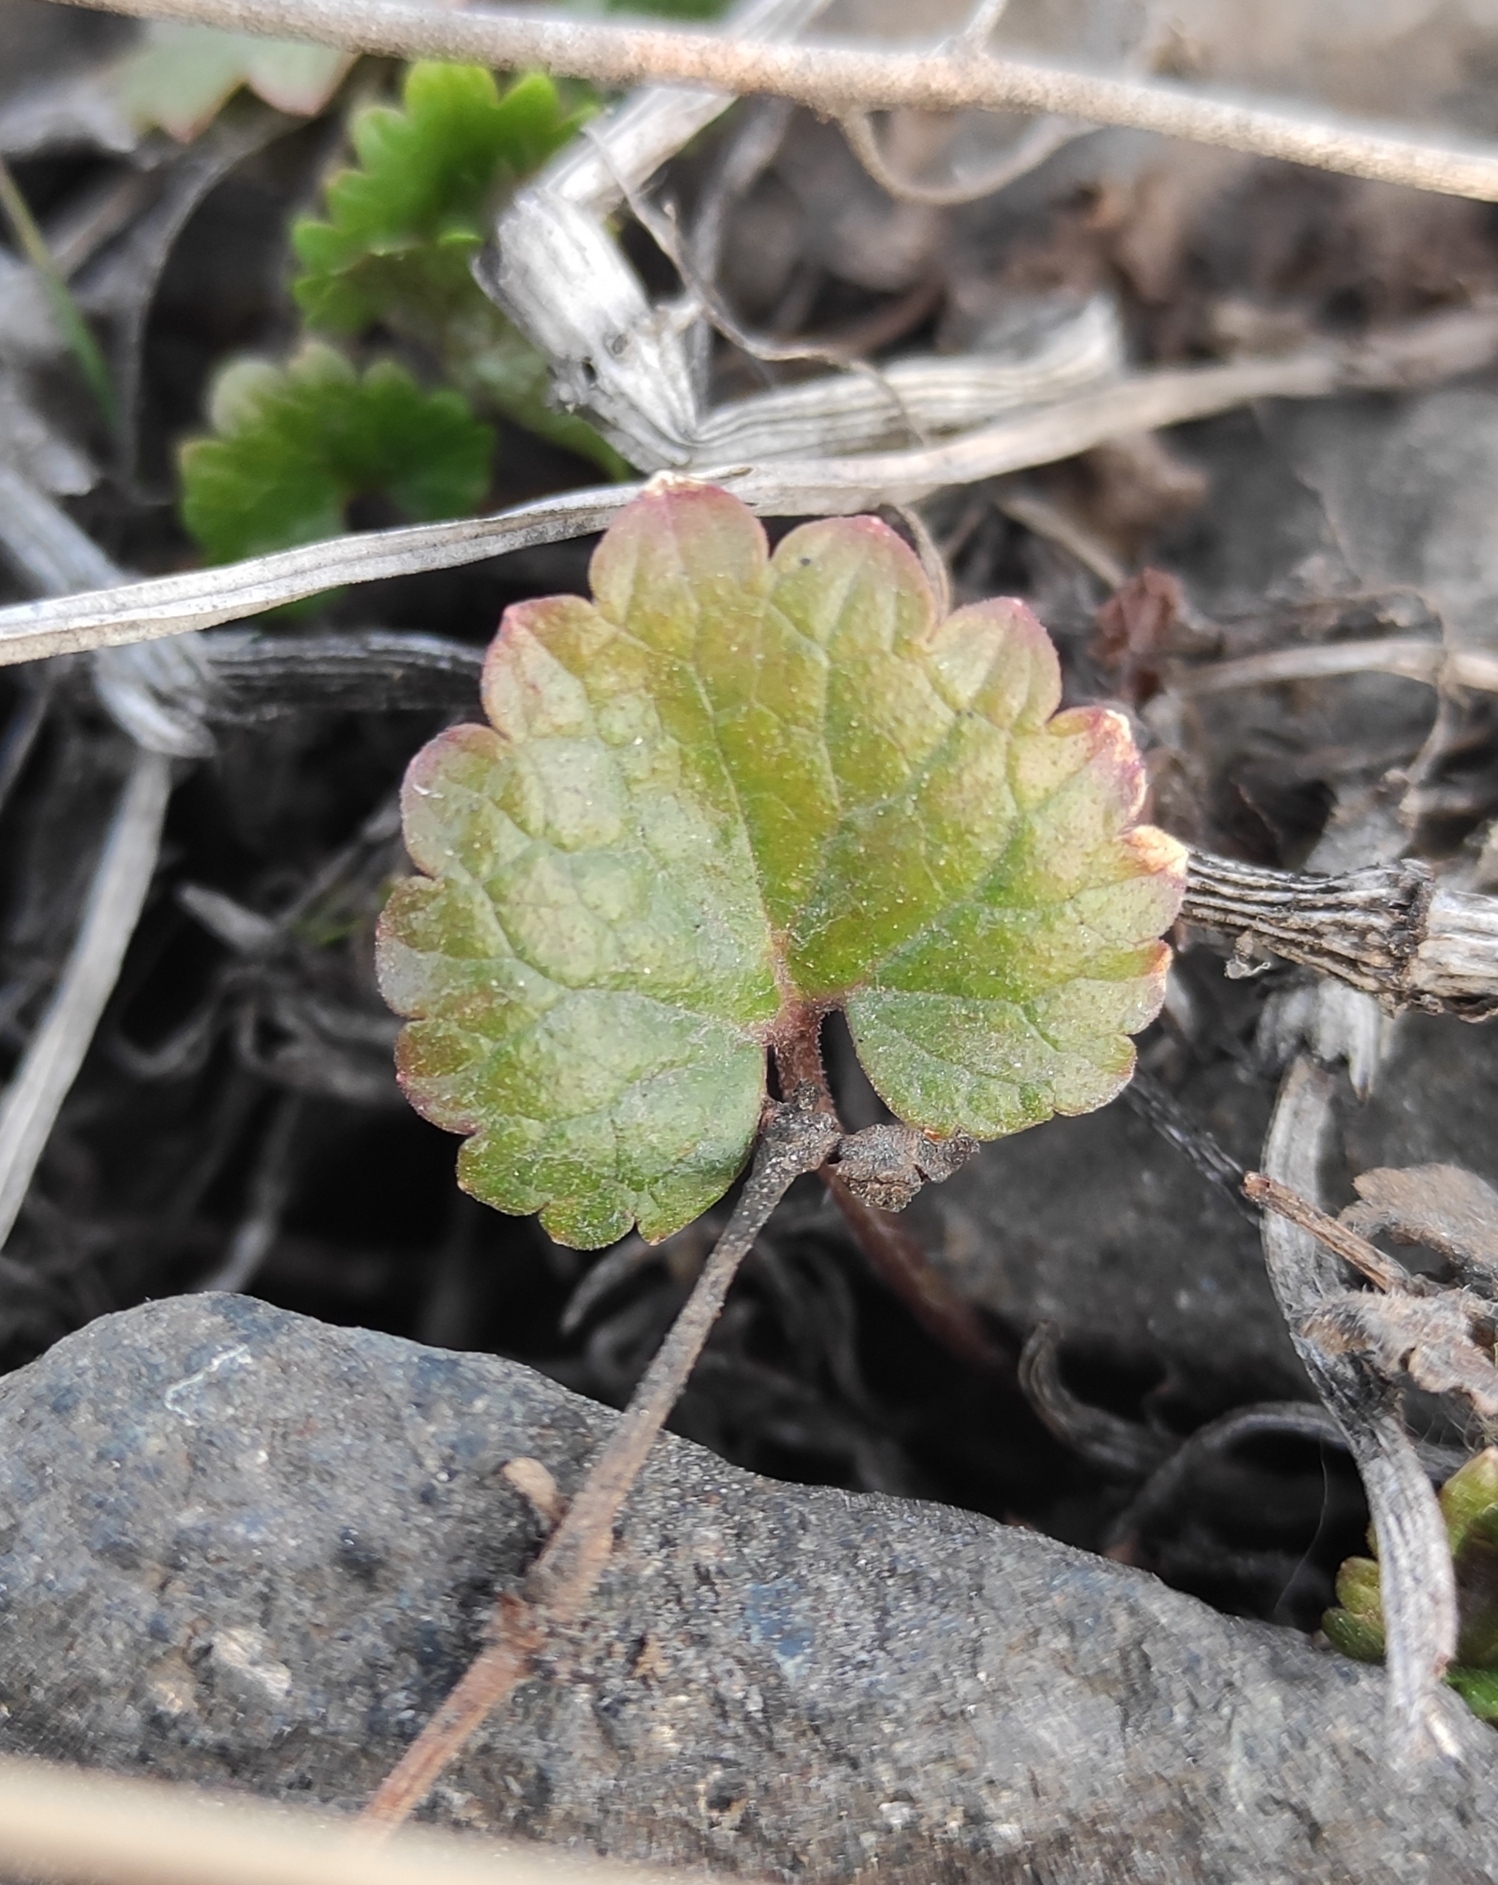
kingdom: Plantae
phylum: Tracheophyta
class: Magnoliopsida
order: Lamiales
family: Lamiaceae
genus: Glechoma
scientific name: Glechoma hederacea
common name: Ground ivy
